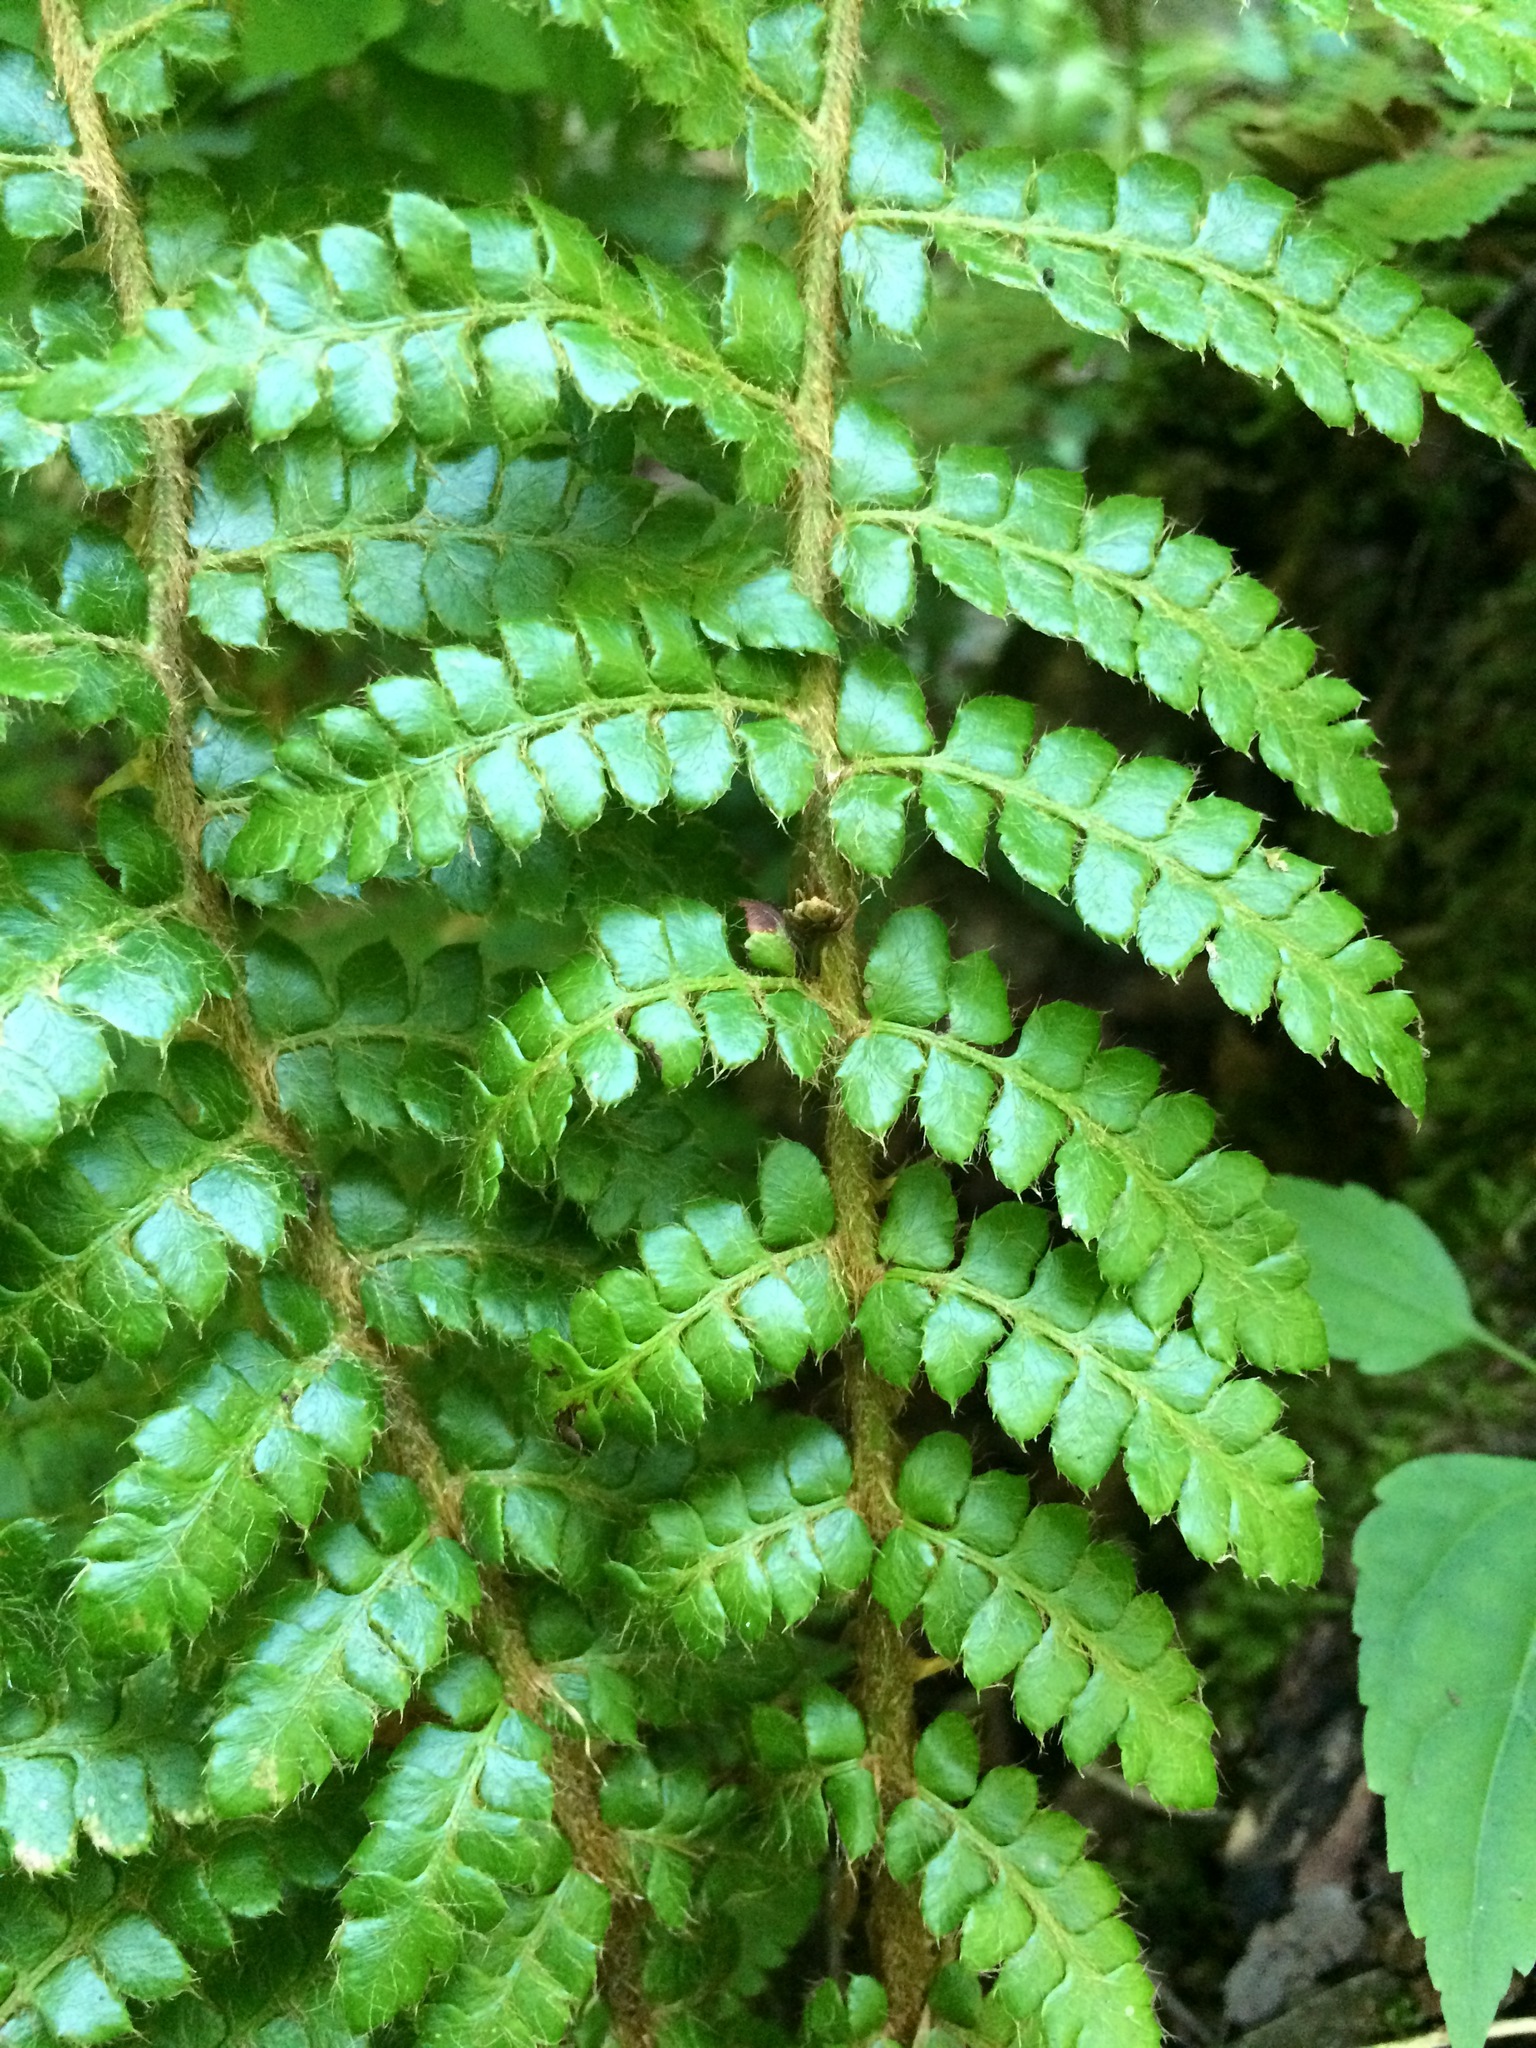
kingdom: Plantae
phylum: Tracheophyta
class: Polypodiopsida
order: Polypodiales
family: Dryopteridaceae
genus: Polystichum
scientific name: Polystichum braunii
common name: Braun's holly fern
